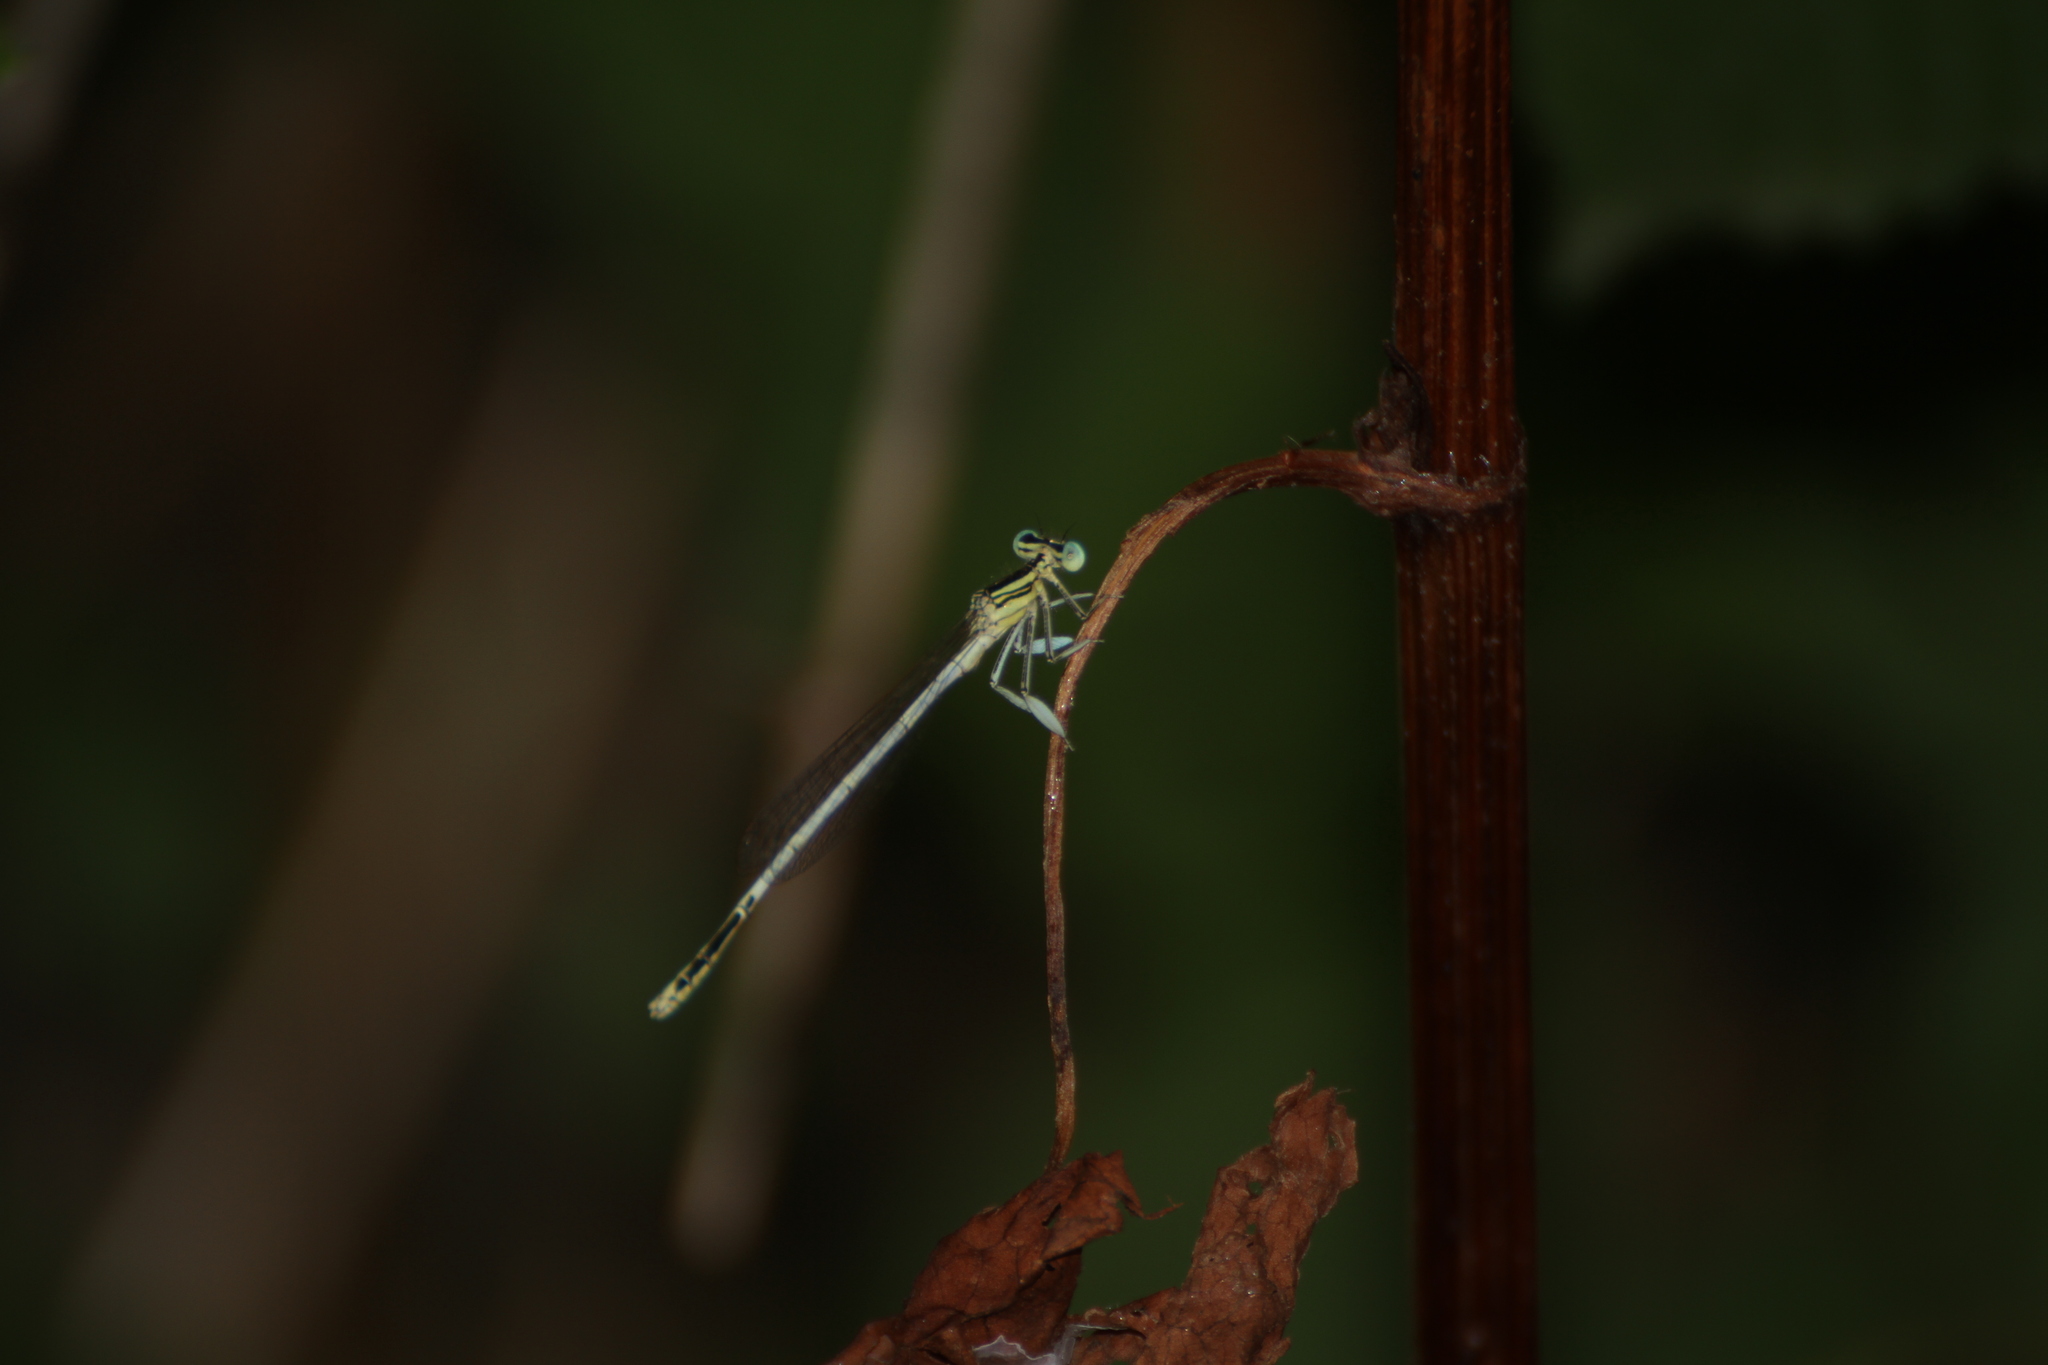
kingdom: Animalia
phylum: Arthropoda
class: Insecta
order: Odonata
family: Platycnemididae
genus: Platycnemis
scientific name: Platycnemis latipes
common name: White featherleg
